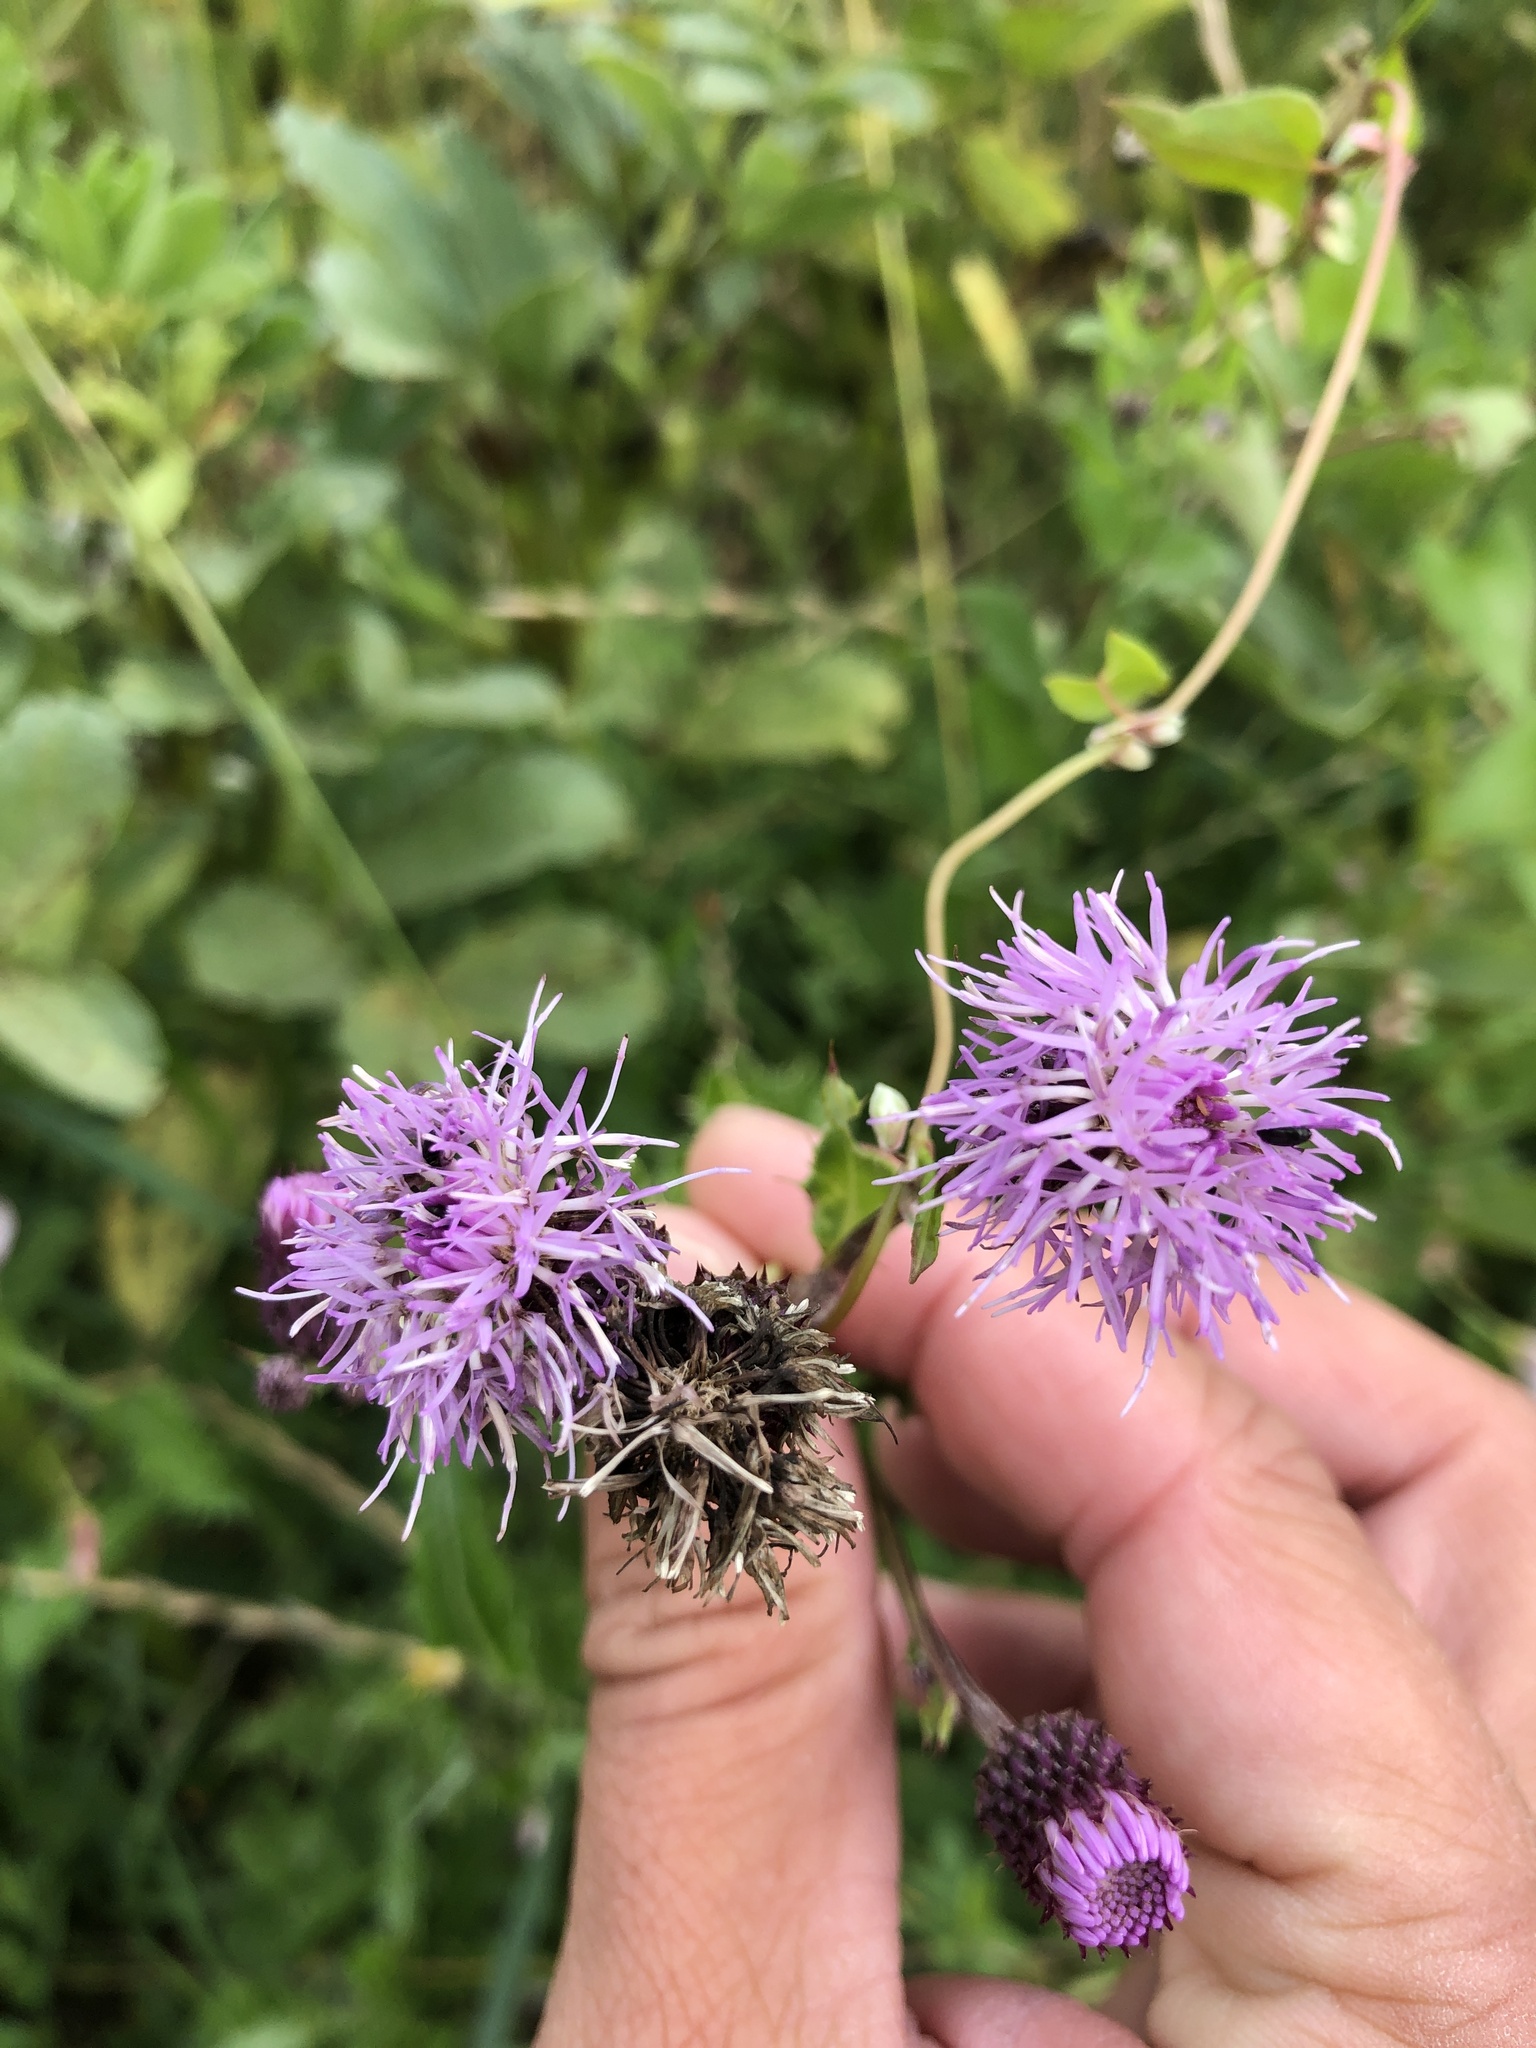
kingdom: Plantae
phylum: Tracheophyta
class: Magnoliopsida
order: Asterales
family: Asteraceae
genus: Cirsium
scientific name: Cirsium arvense
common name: Creeping thistle
